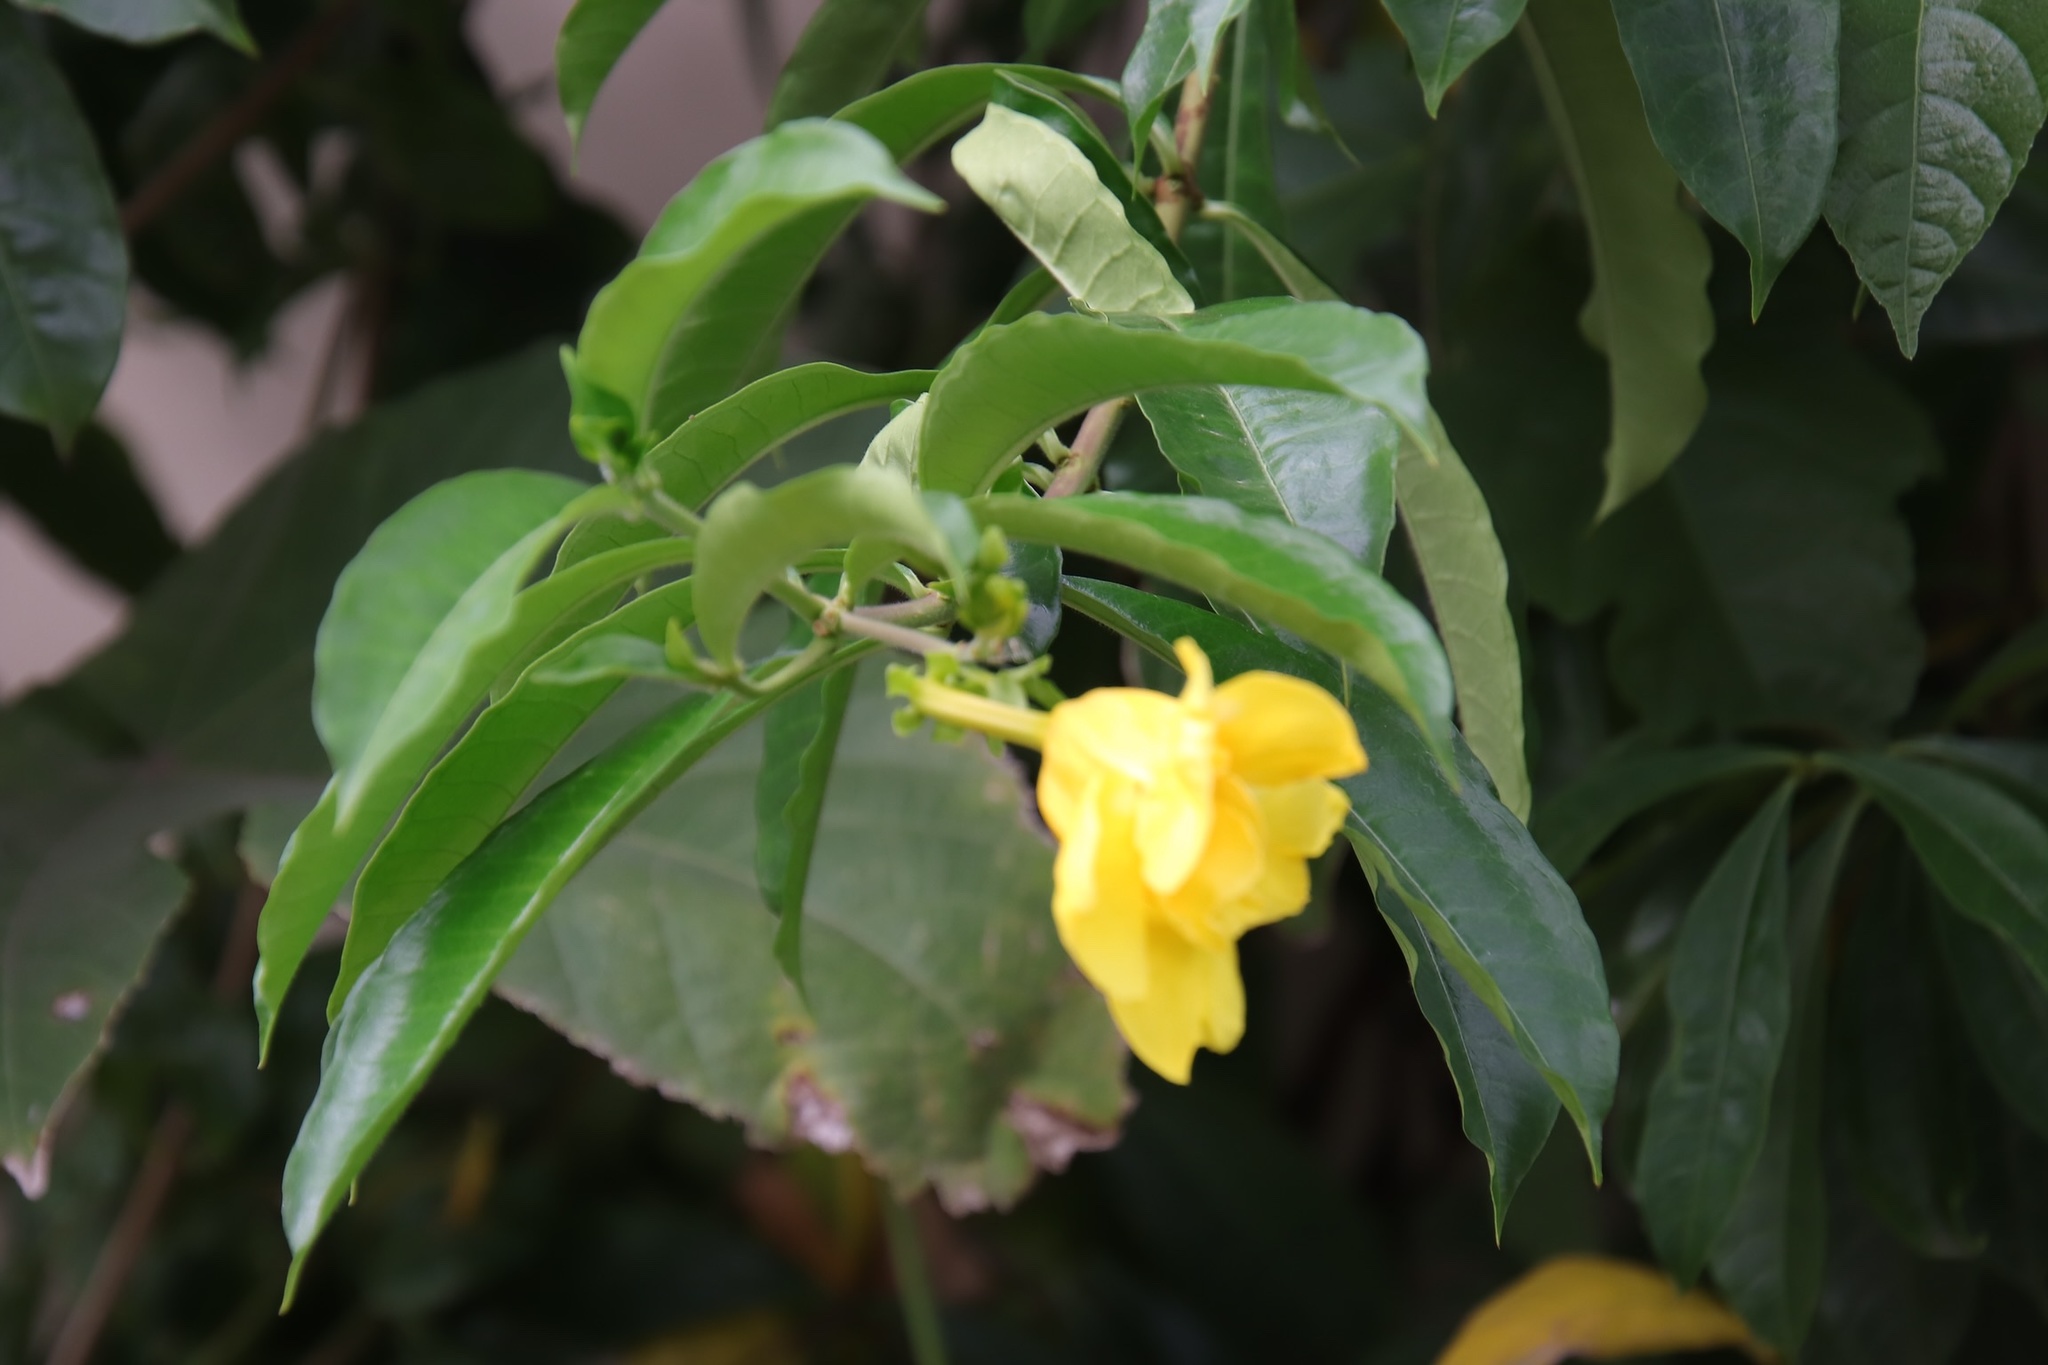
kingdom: Plantae
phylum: Tracheophyta
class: Magnoliopsida
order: Gentianales
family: Apocynaceae
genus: Allamanda
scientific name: Allamanda cathartica
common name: Golden trumpet
